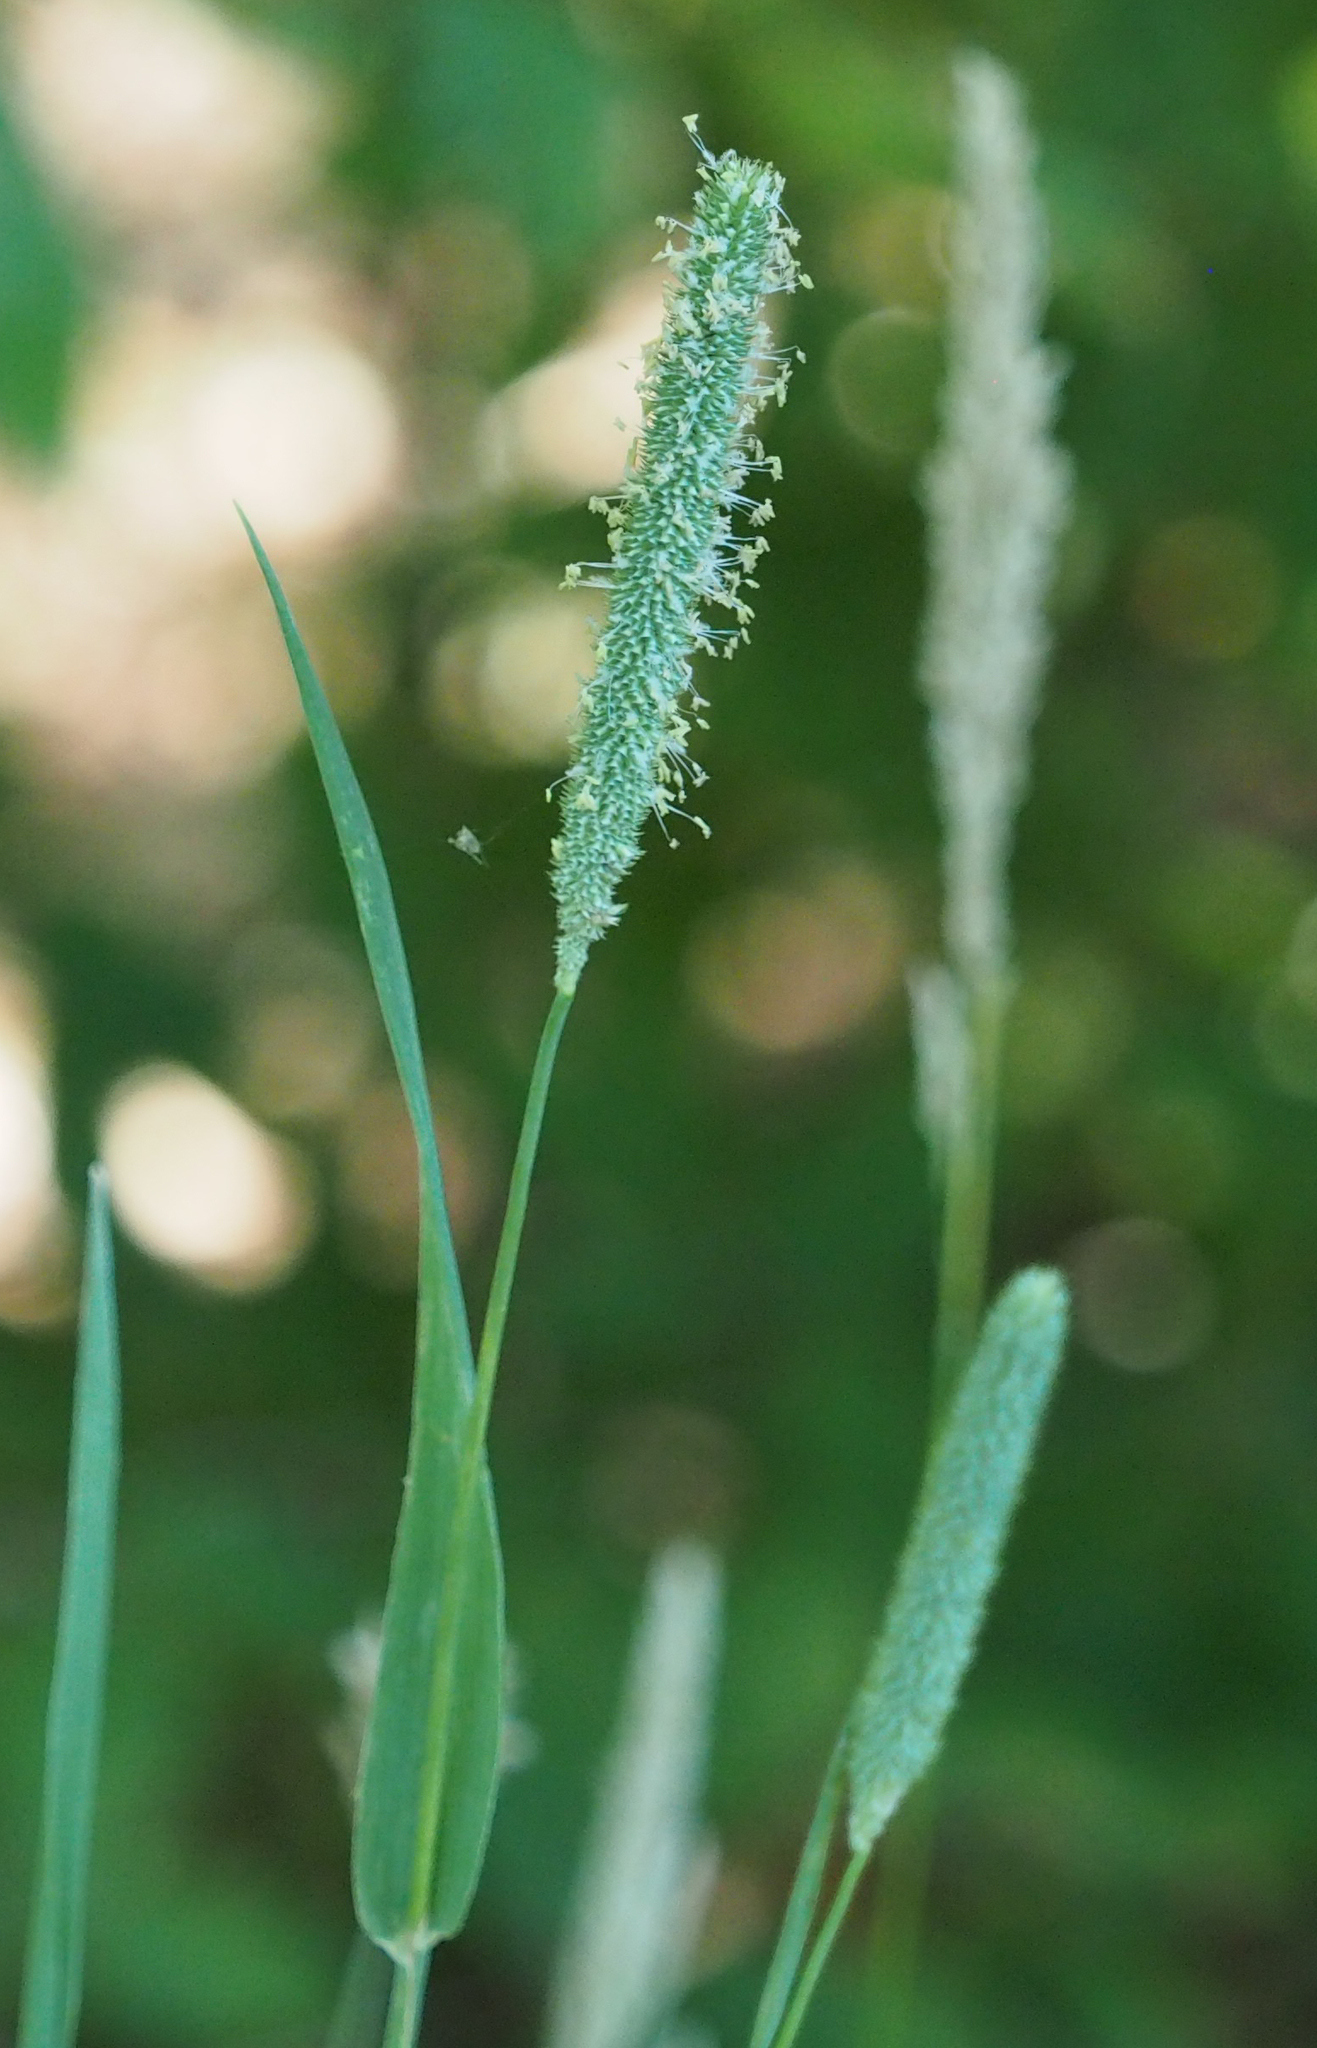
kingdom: Plantae
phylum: Tracheophyta
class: Liliopsida
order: Poales
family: Poaceae
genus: Phleum
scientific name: Phleum pratense
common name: Timothy grass
